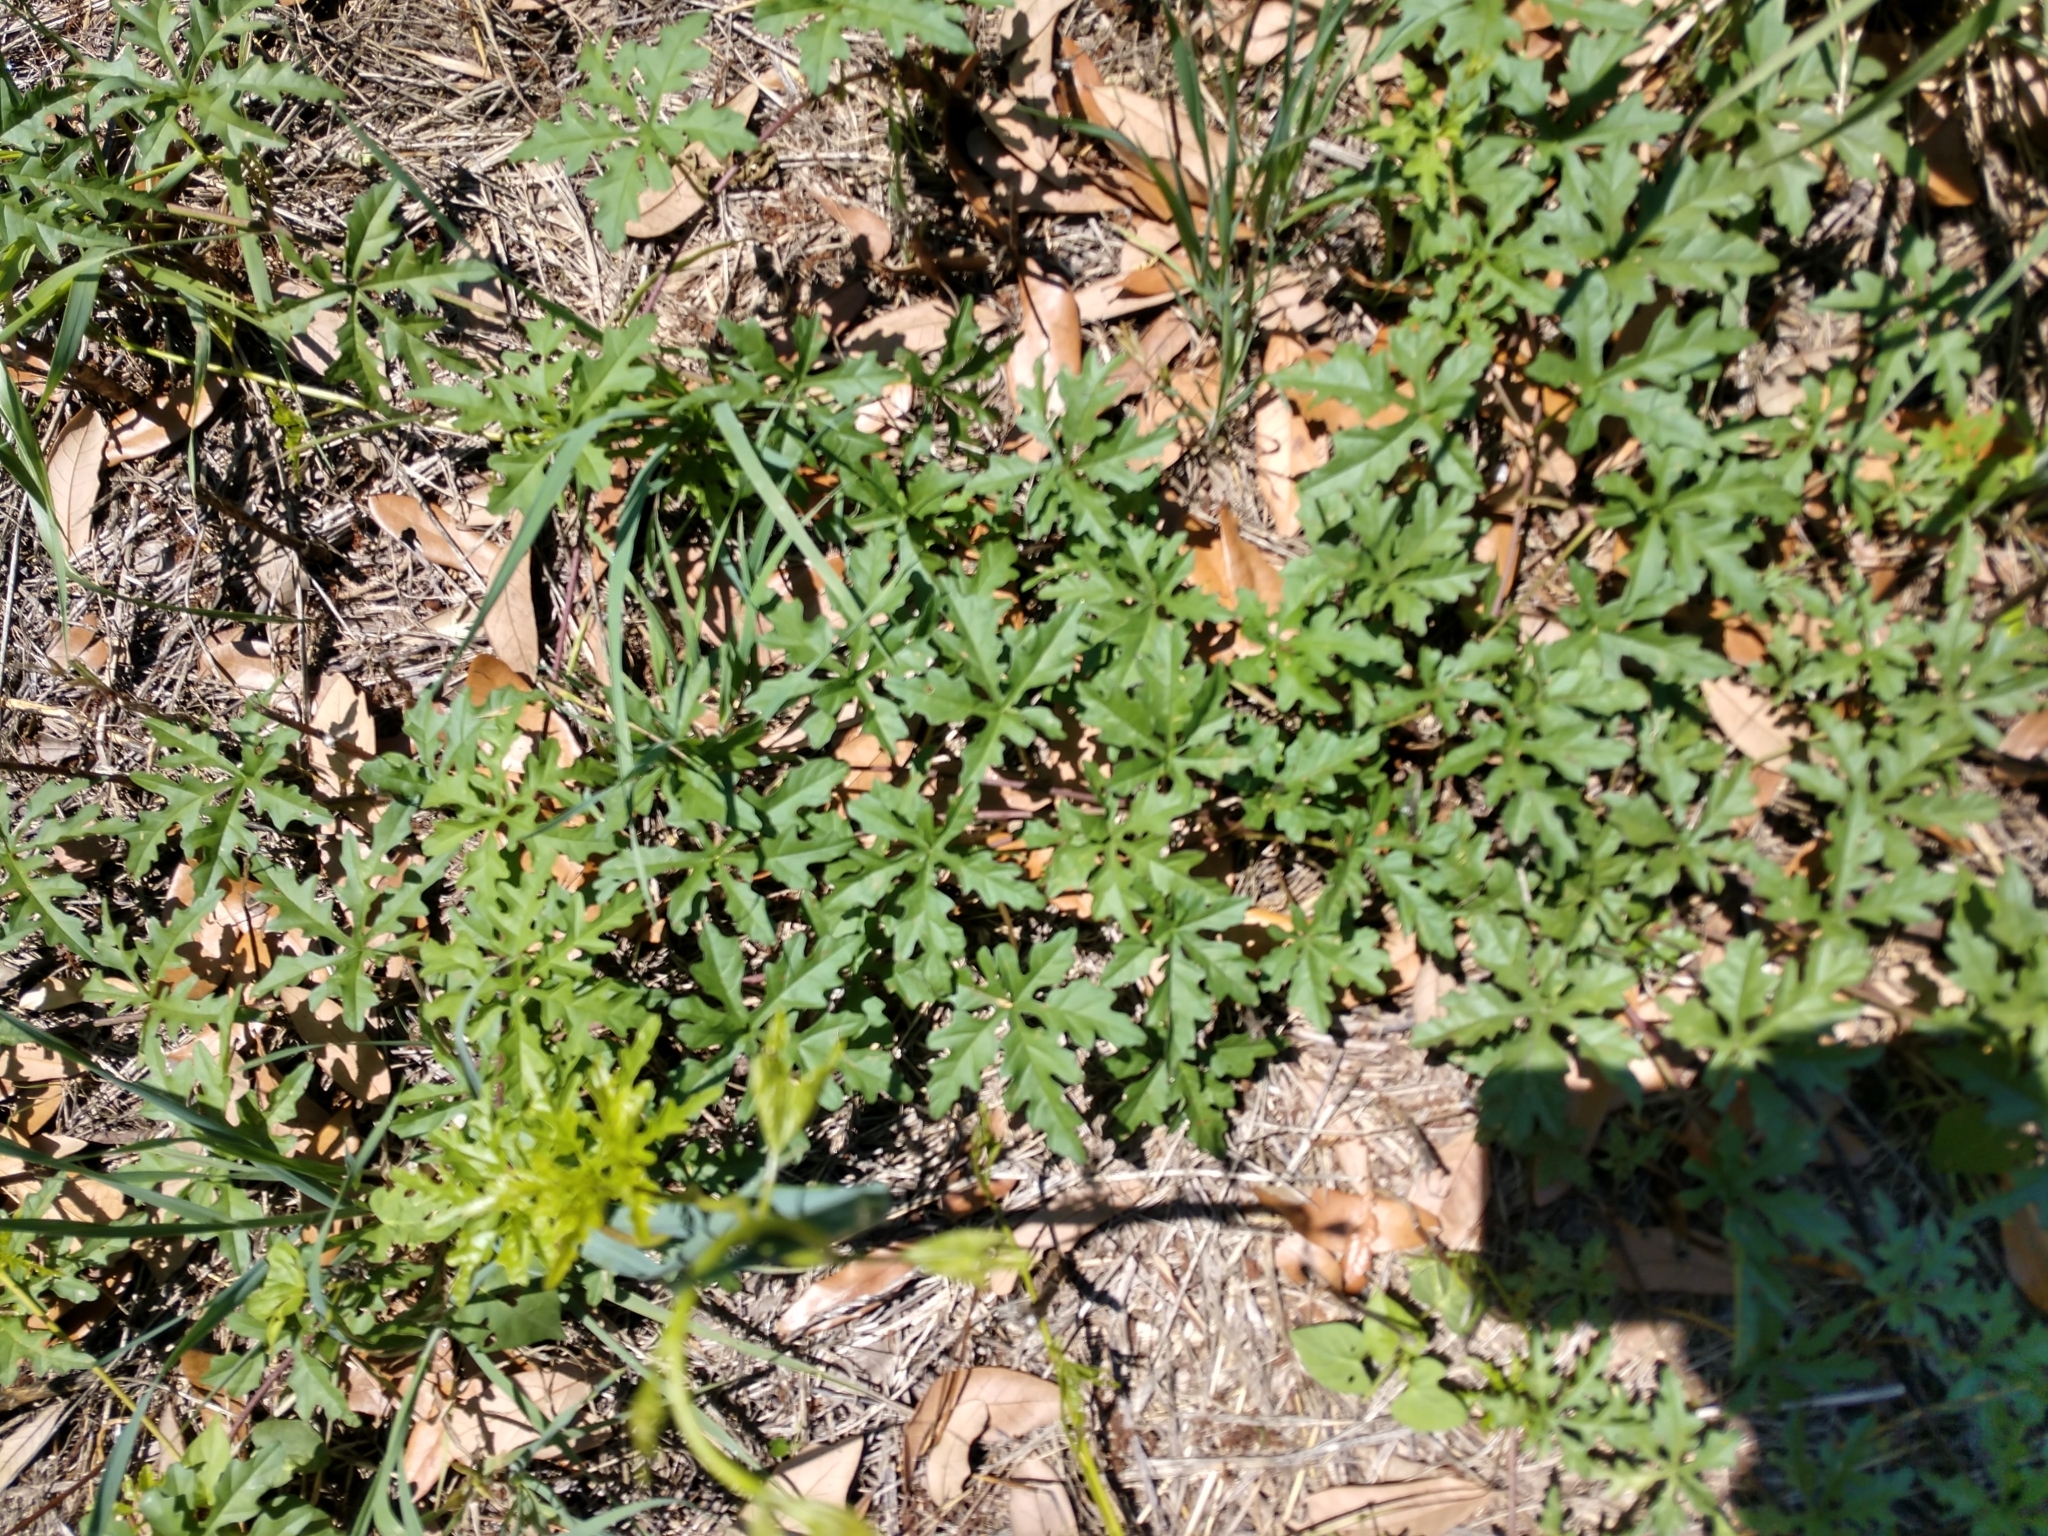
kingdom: Plantae
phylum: Tracheophyta
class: Magnoliopsida
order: Solanales
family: Convolvulaceae
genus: Distimake
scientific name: Distimake dissectus
